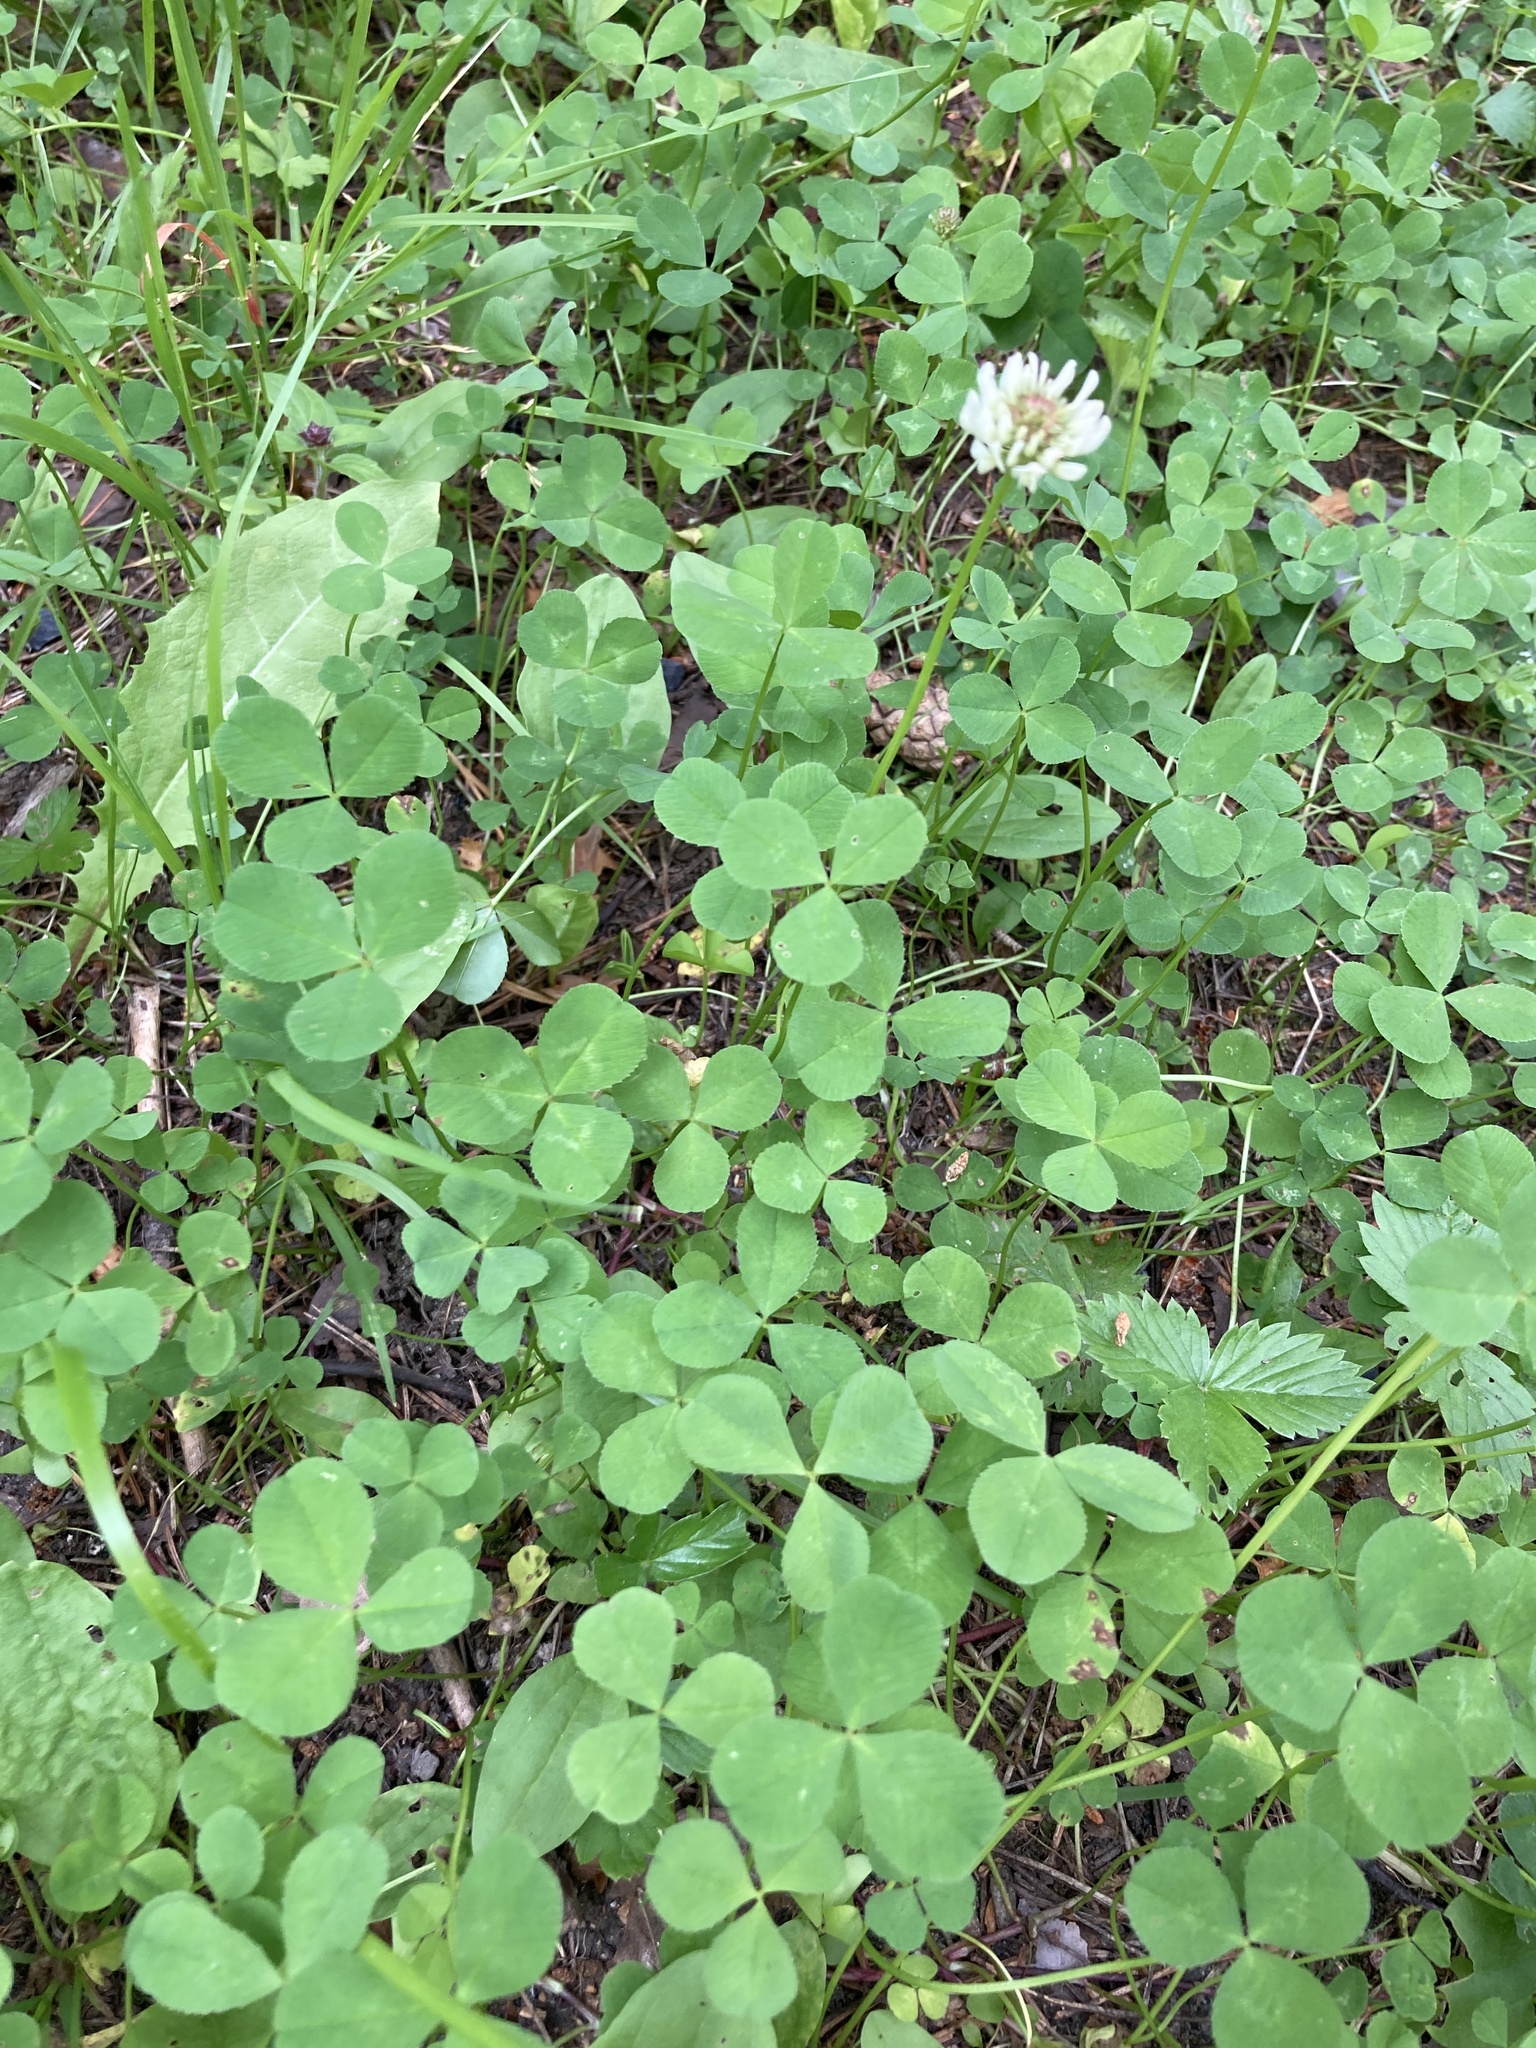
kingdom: Plantae
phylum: Tracheophyta
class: Magnoliopsida
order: Fabales
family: Fabaceae
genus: Trifolium
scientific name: Trifolium repens
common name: White clover
